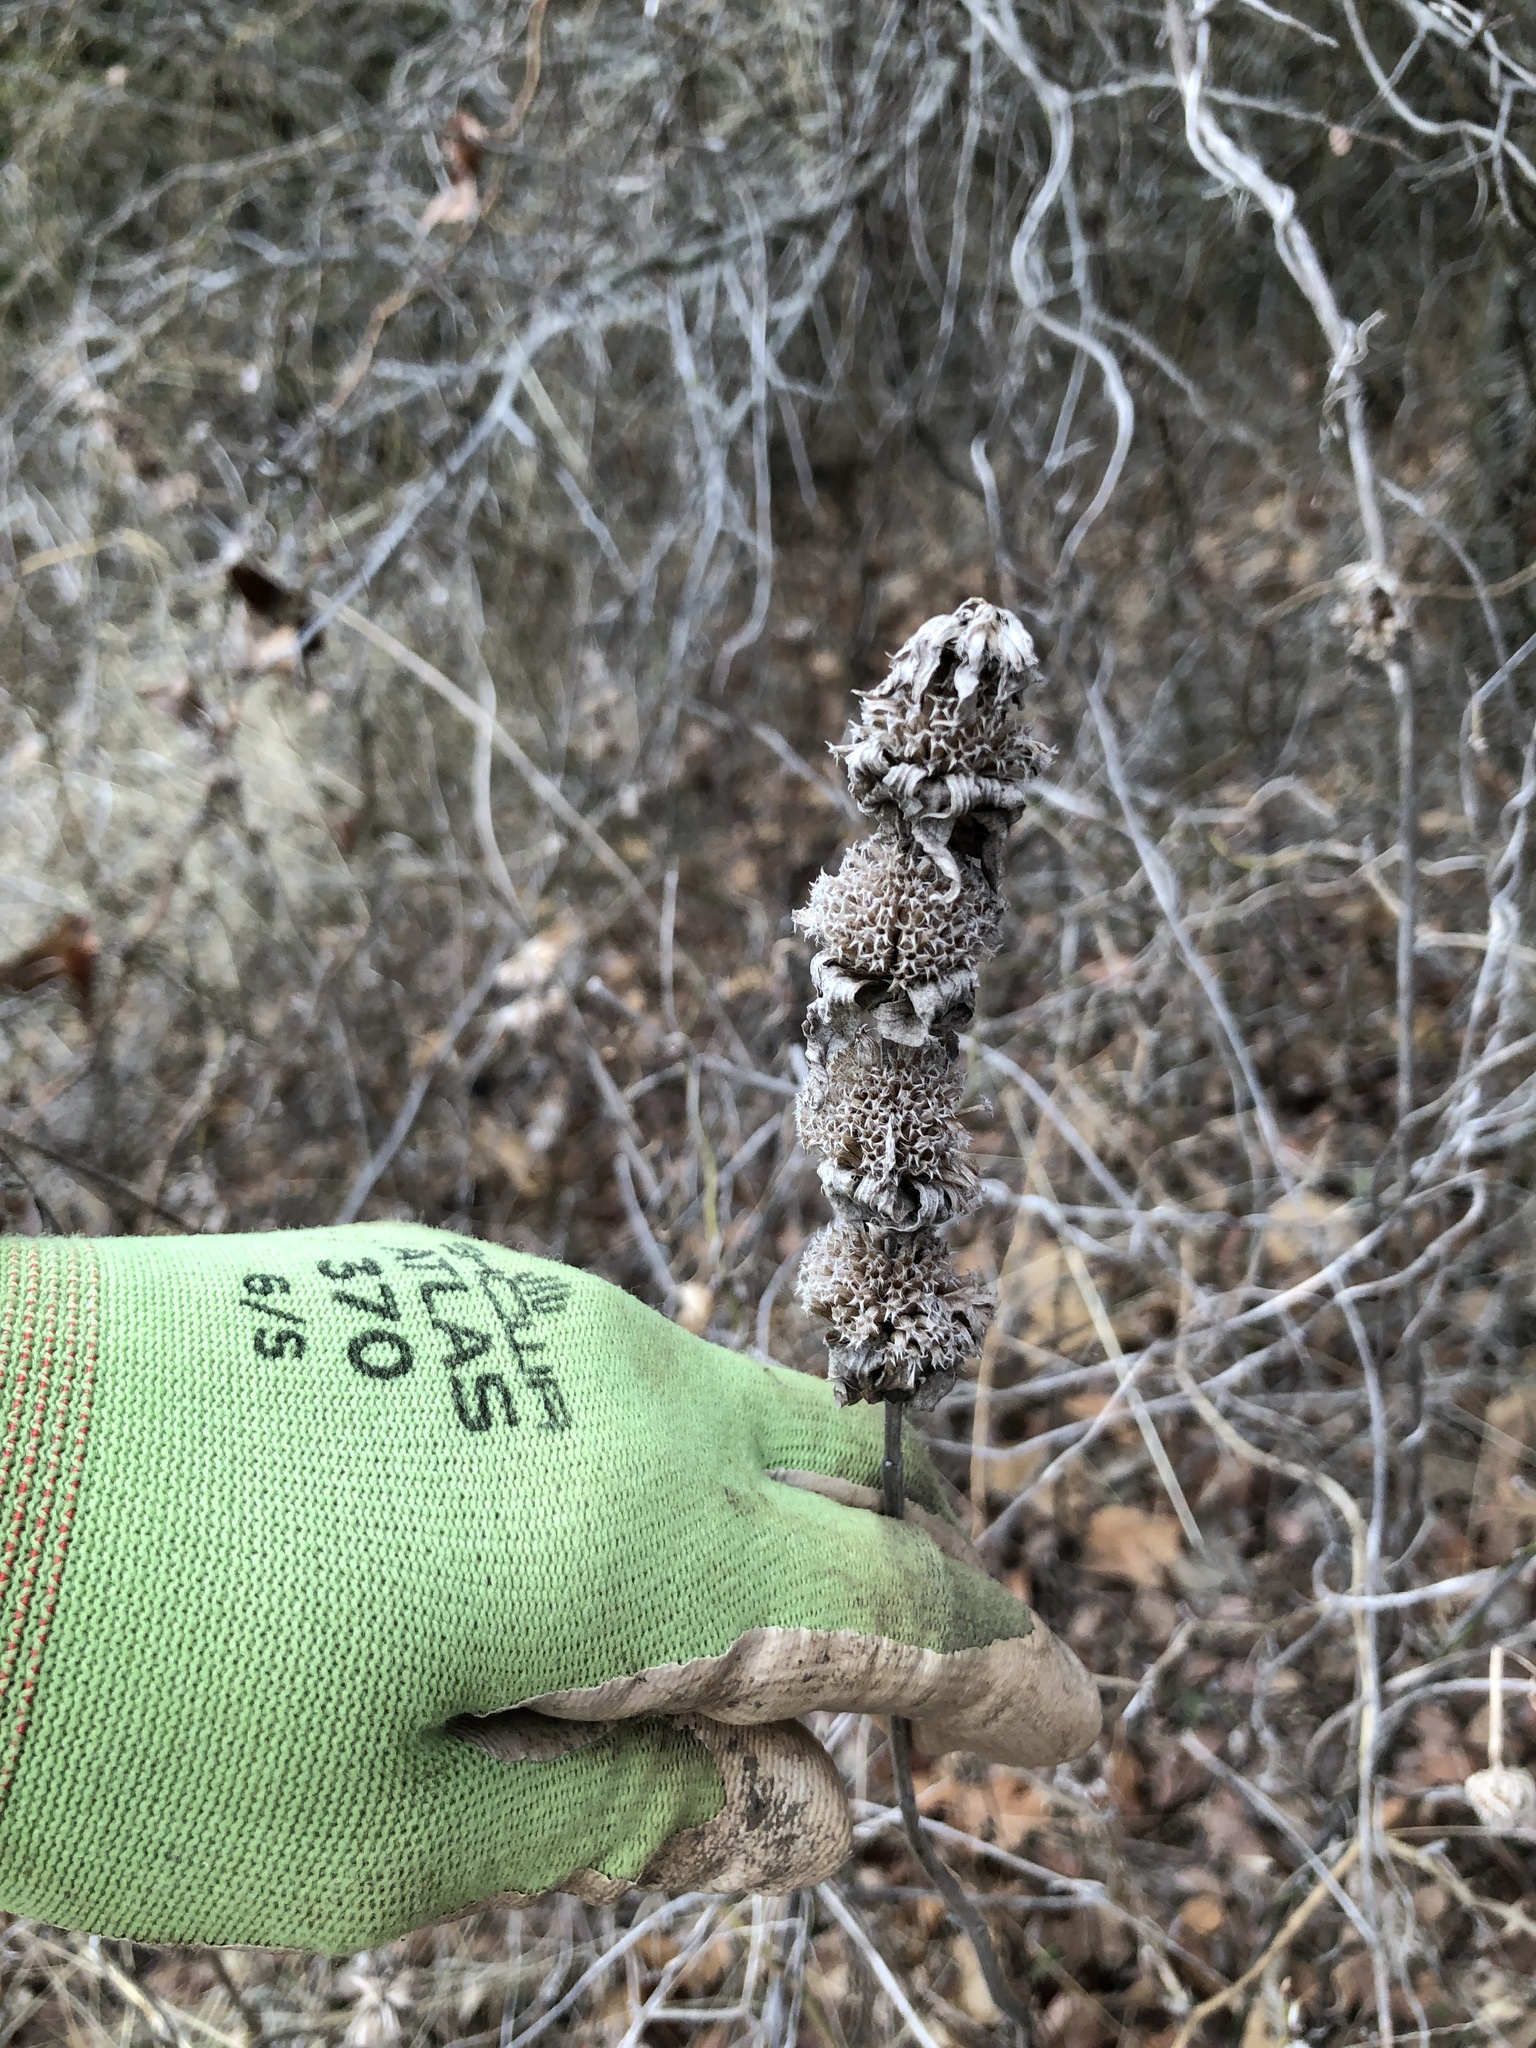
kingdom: Plantae
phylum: Tracheophyta
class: Magnoliopsida
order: Lamiales
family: Lamiaceae
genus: Monarda
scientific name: Monarda punctata
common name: Dotted monarda
